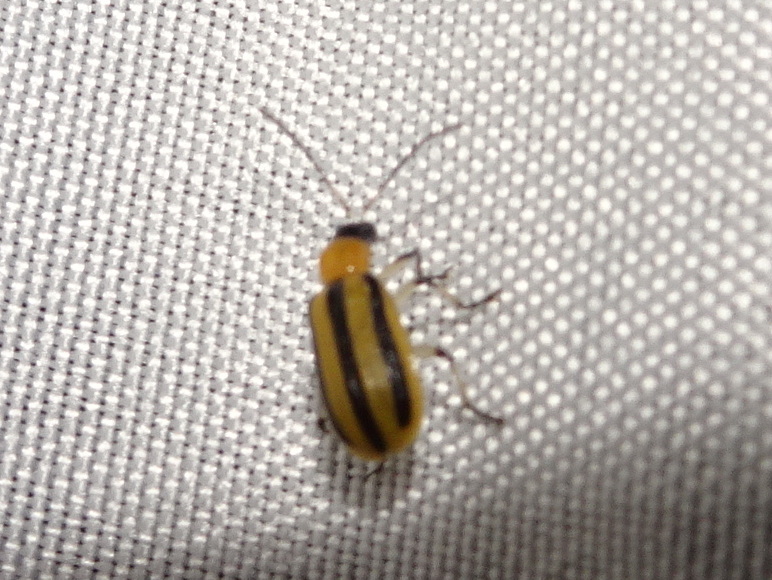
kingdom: Animalia
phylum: Arthropoda
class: Insecta
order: Coleoptera
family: Chrysomelidae
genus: Acalymma
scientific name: Acalymma vittatum
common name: Striped cucumber beetle
